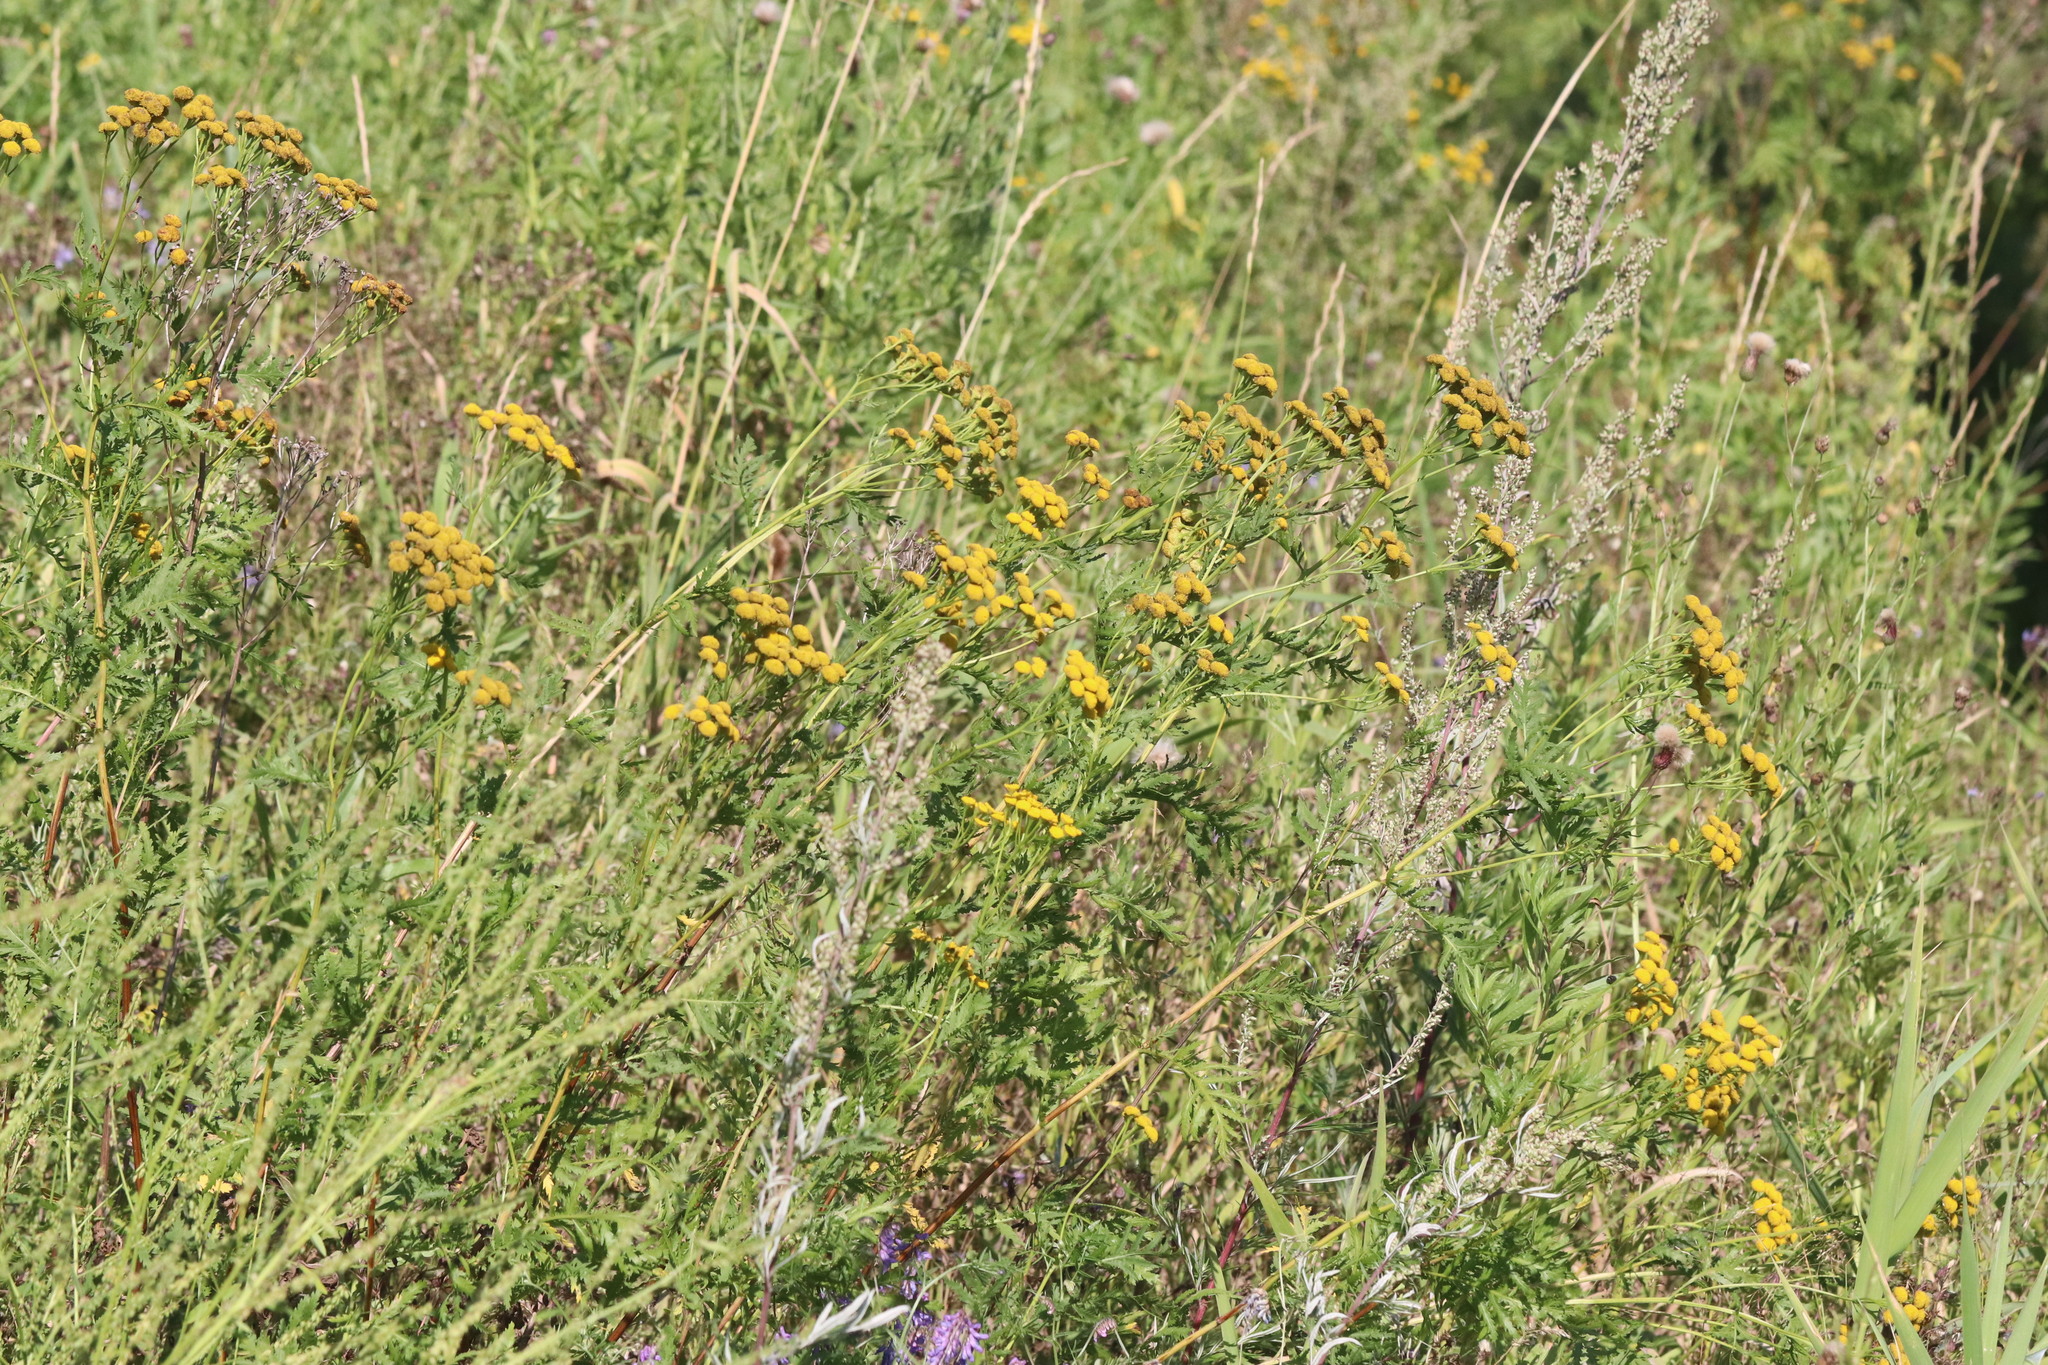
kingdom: Plantae
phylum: Tracheophyta
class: Magnoliopsida
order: Asterales
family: Asteraceae
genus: Tanacetum
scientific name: Tanacetum vulgare
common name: Common tansy
